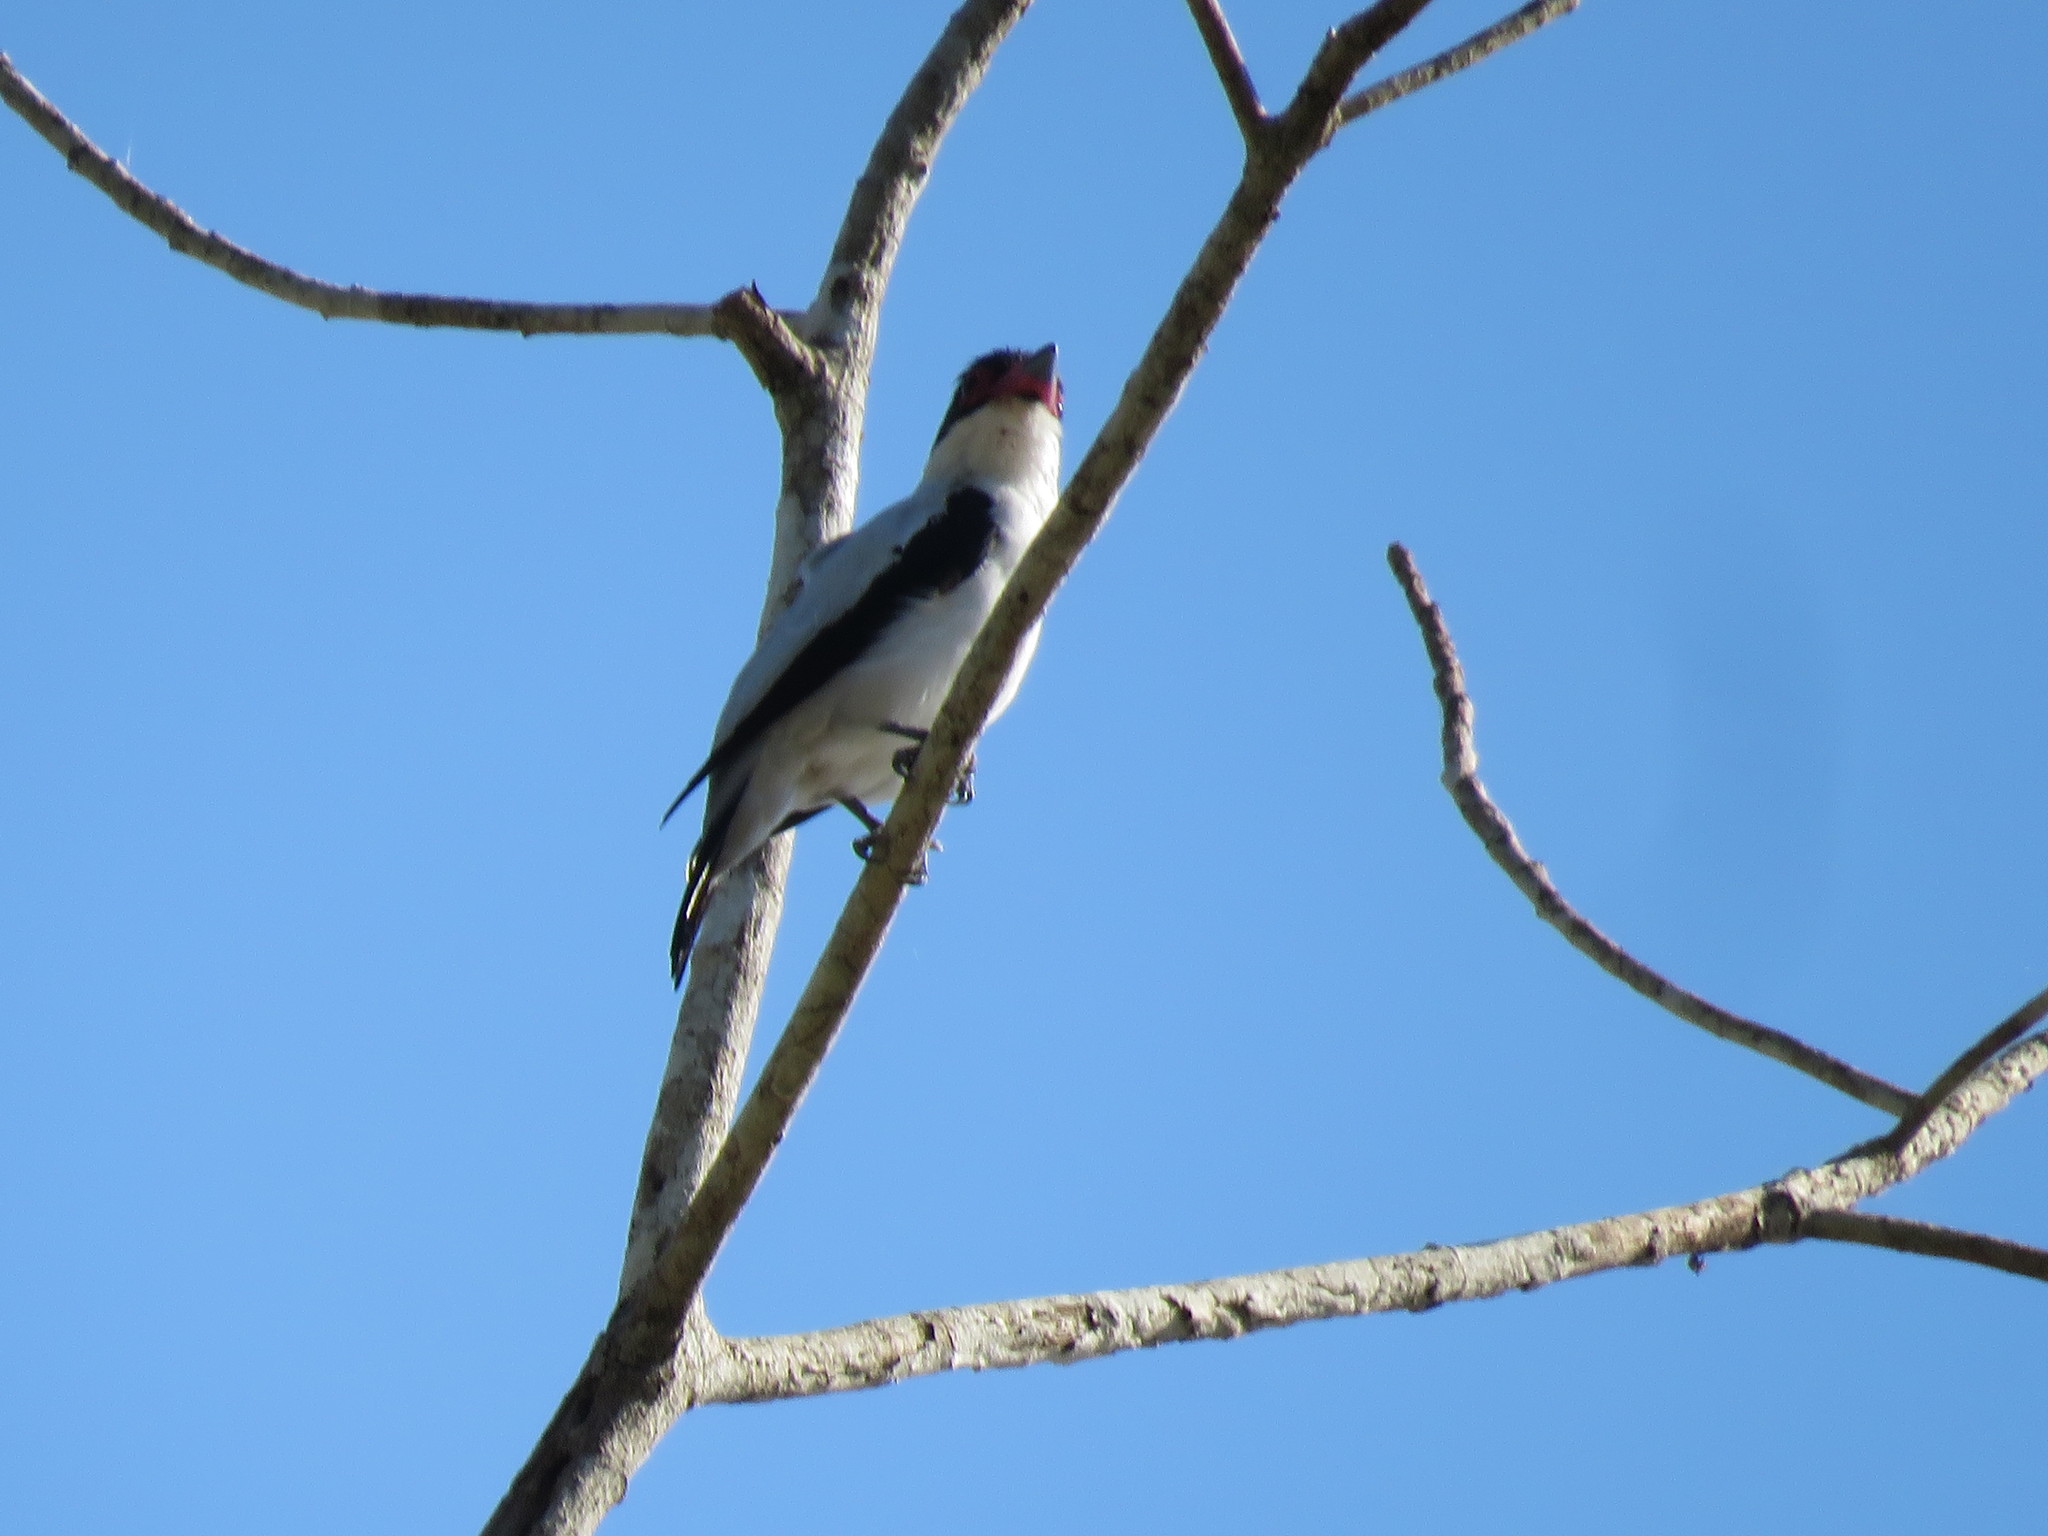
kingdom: Animalia
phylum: Chordata
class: Aves
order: Passeriformes
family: Cotingidae
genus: Tityra
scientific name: Tityra cayana
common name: Black-tailed tityra
